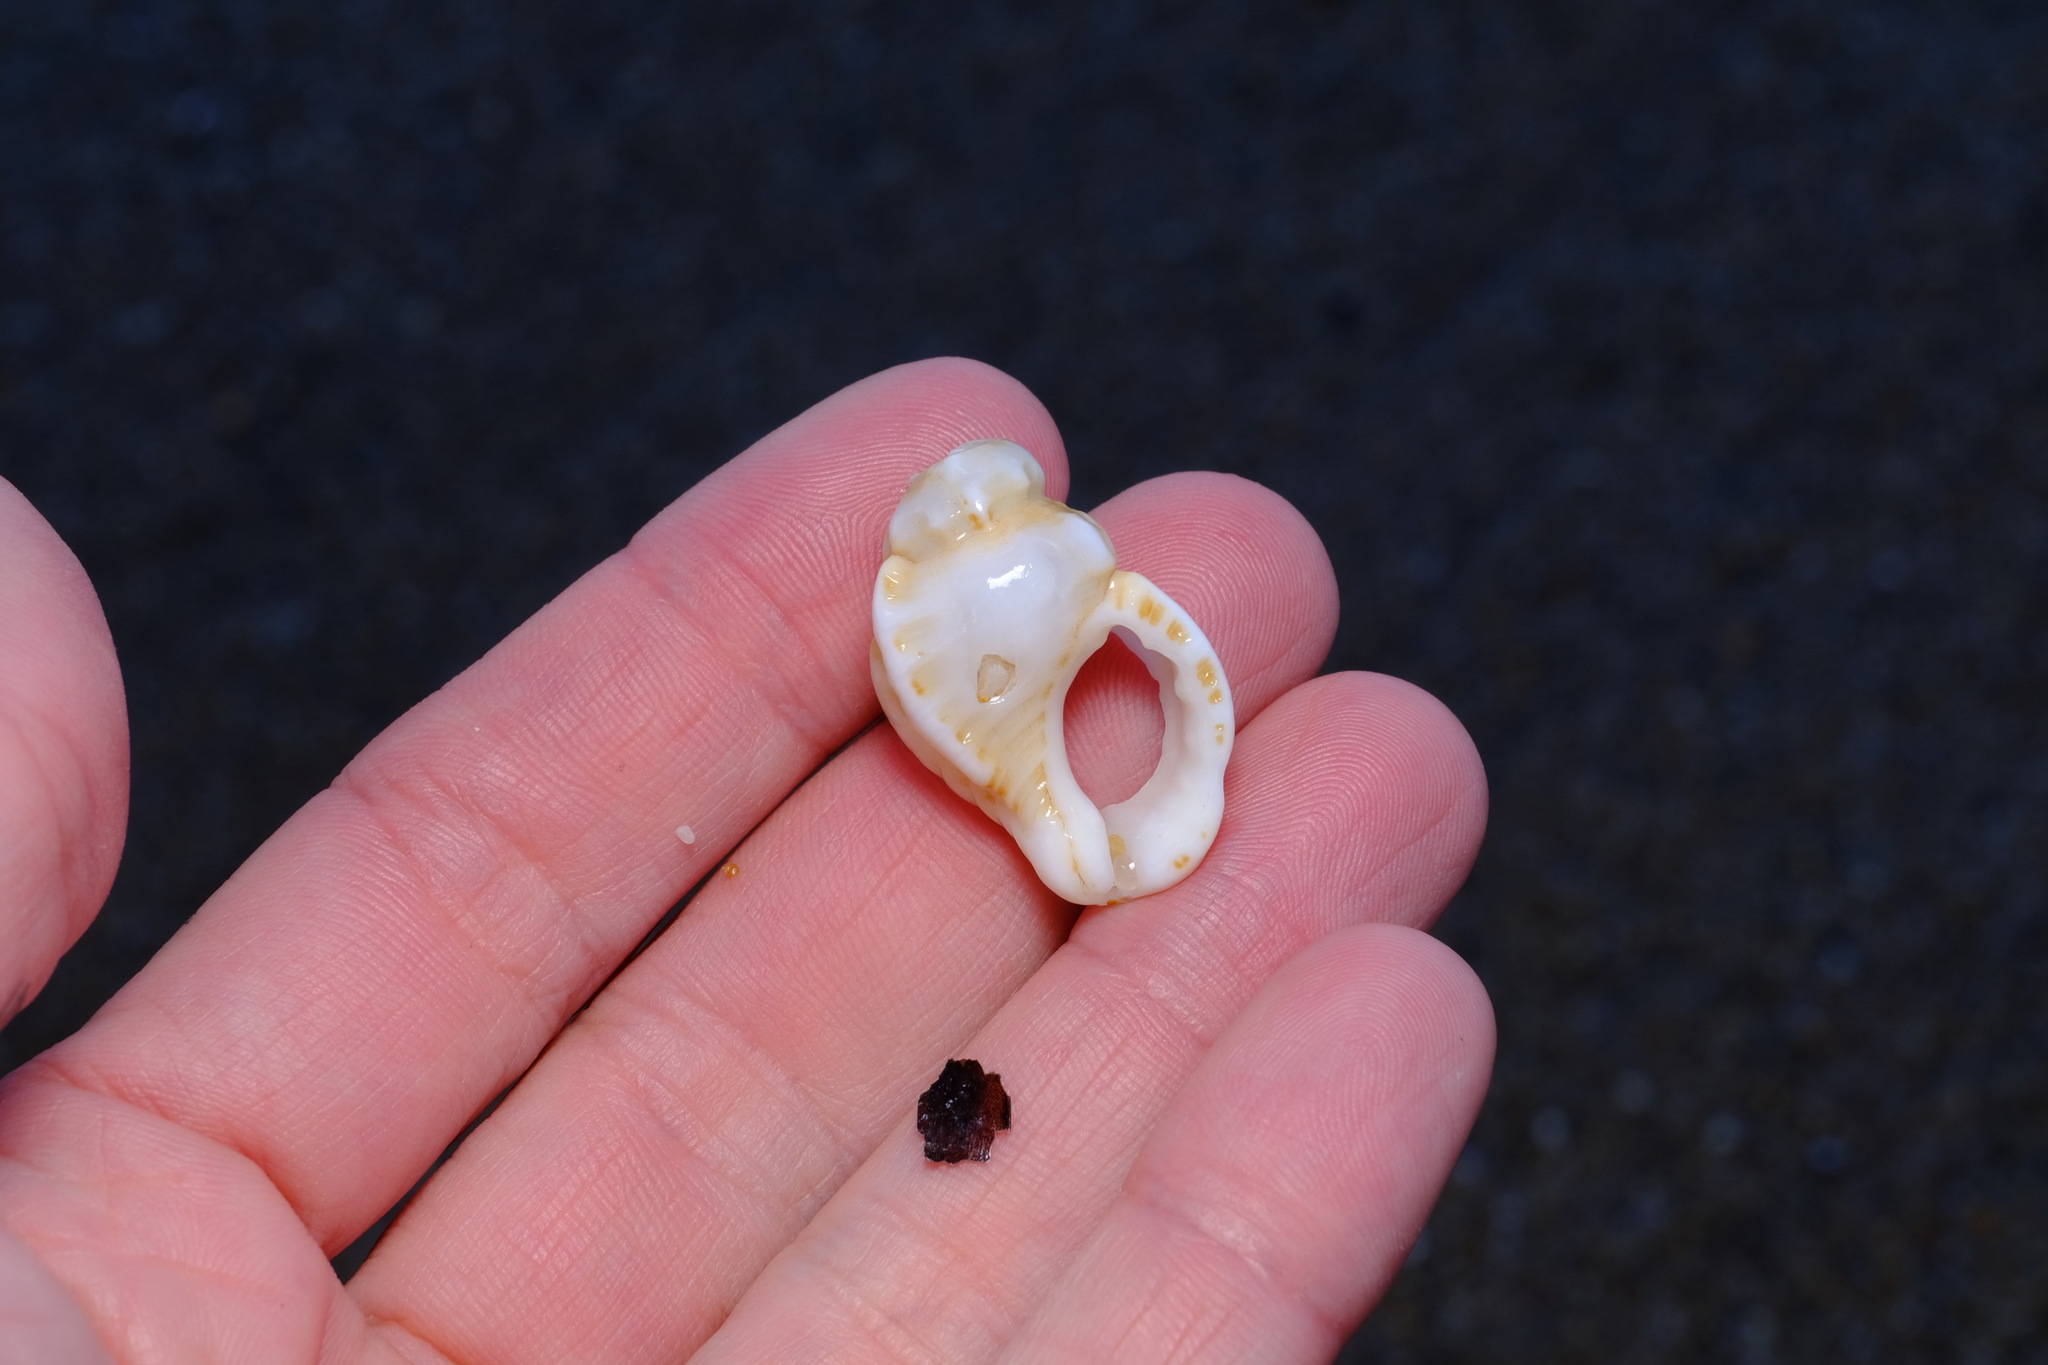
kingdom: Animalia
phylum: Mollusca
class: Gastropoda
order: Littorinimorpha
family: Cymatiidae
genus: Cabestana
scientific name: Cabestana tabulata
